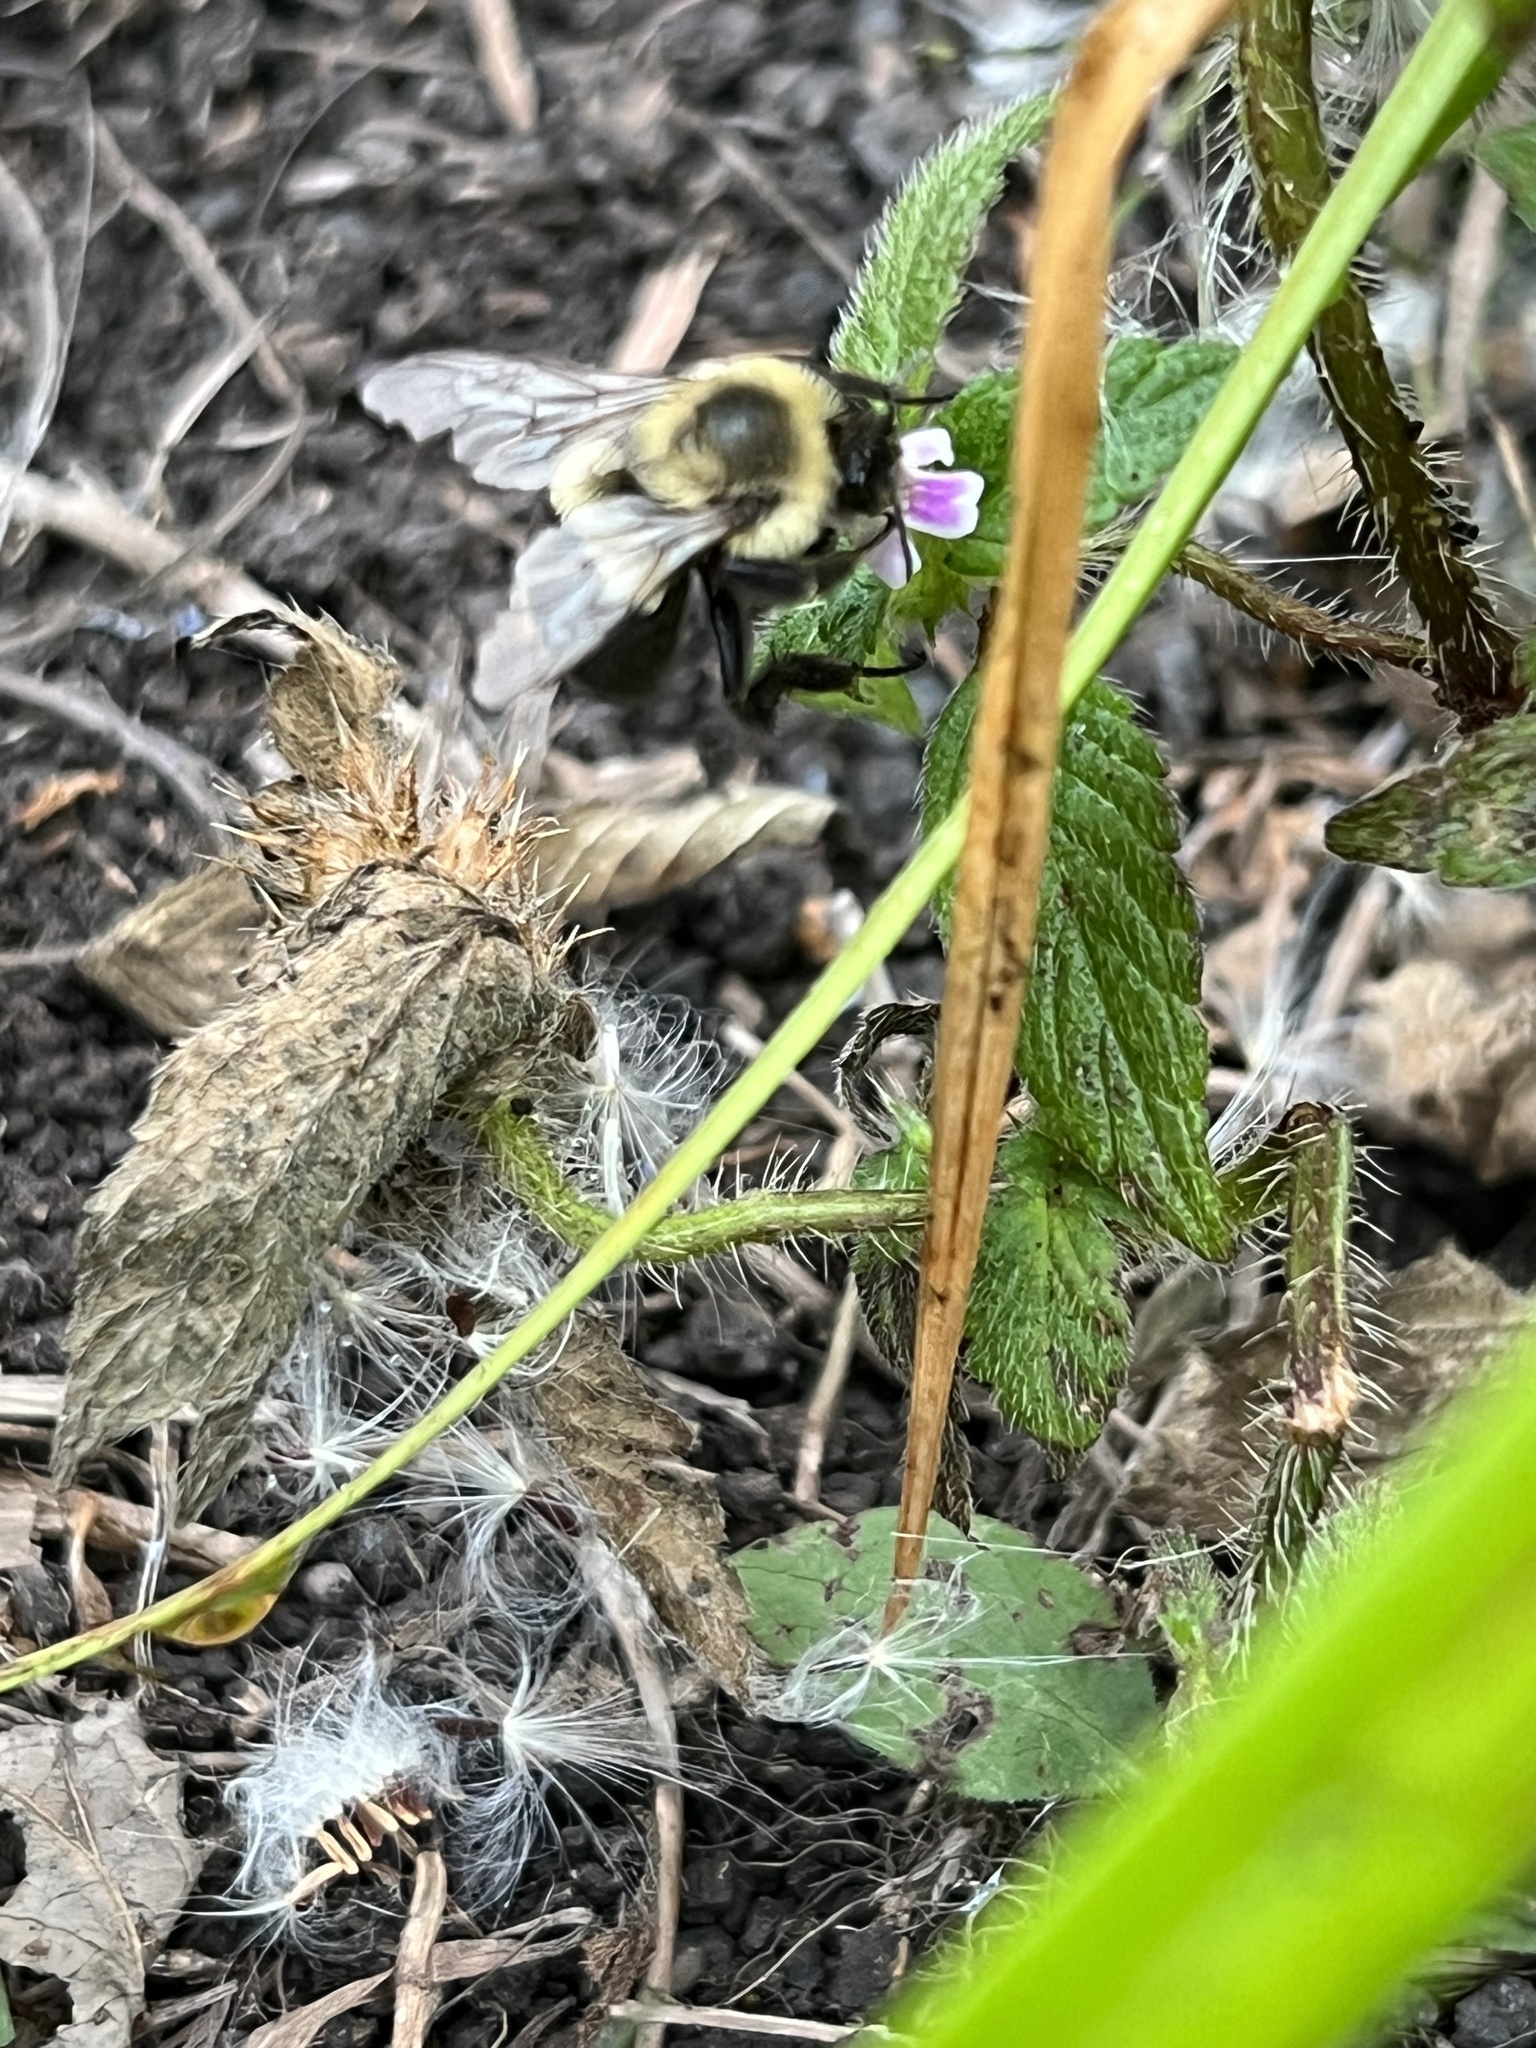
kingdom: Animalia
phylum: Arthropoda
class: Insecta
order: Hymenoptera
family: Apidae
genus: Bombus
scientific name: Bombus impatiens
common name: Common eastern bumble bee
